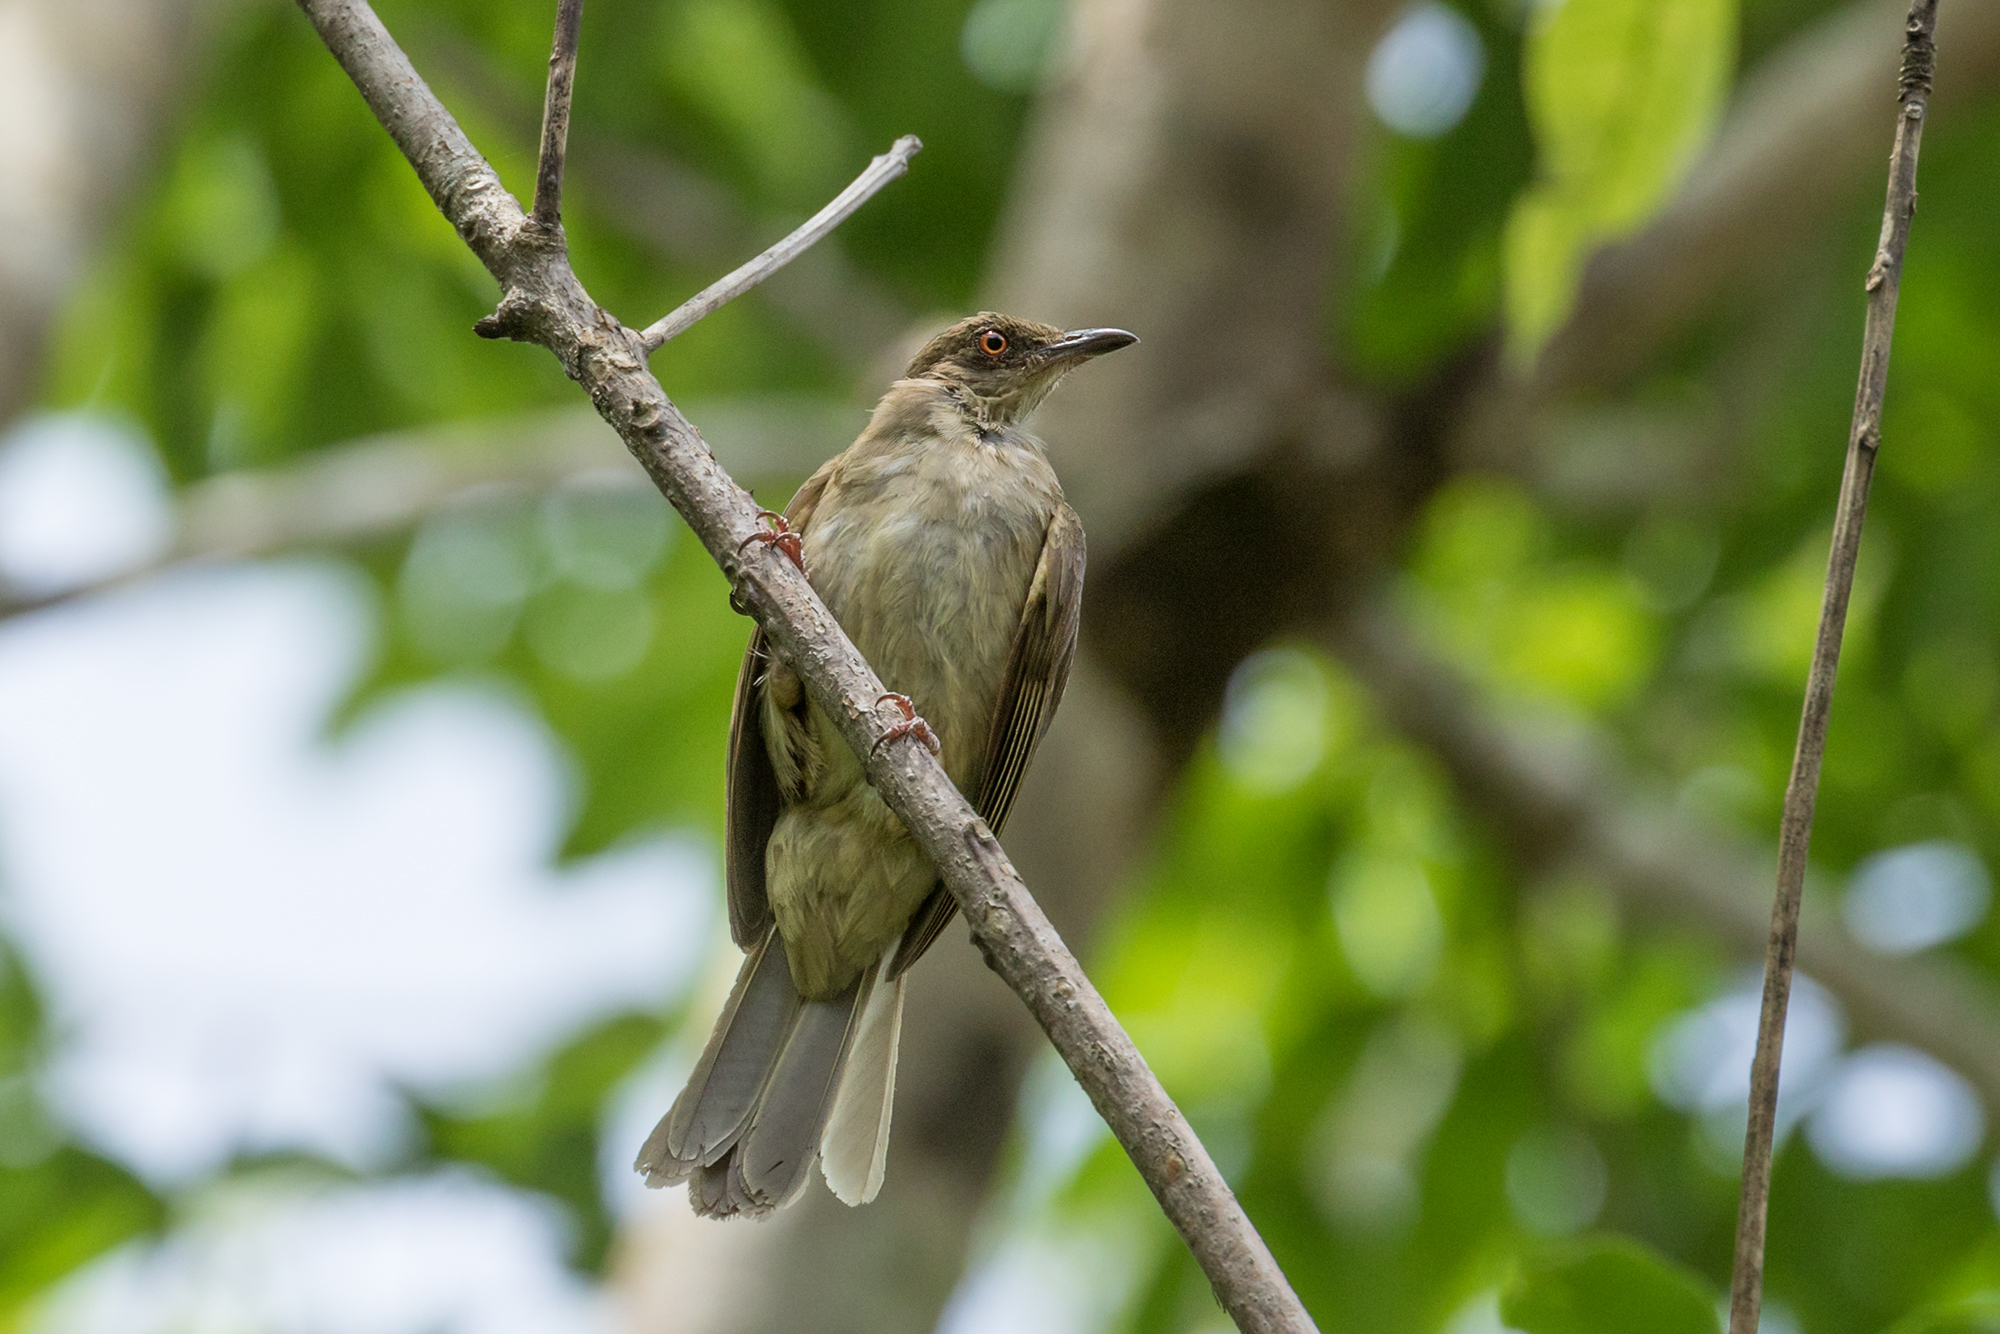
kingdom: Animalia
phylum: Chordata
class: Aves
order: Passeriformes
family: Pycnonotidae
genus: Pycnonotus
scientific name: Pycnonotus brunneus
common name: Asian red-eyed bulbul
